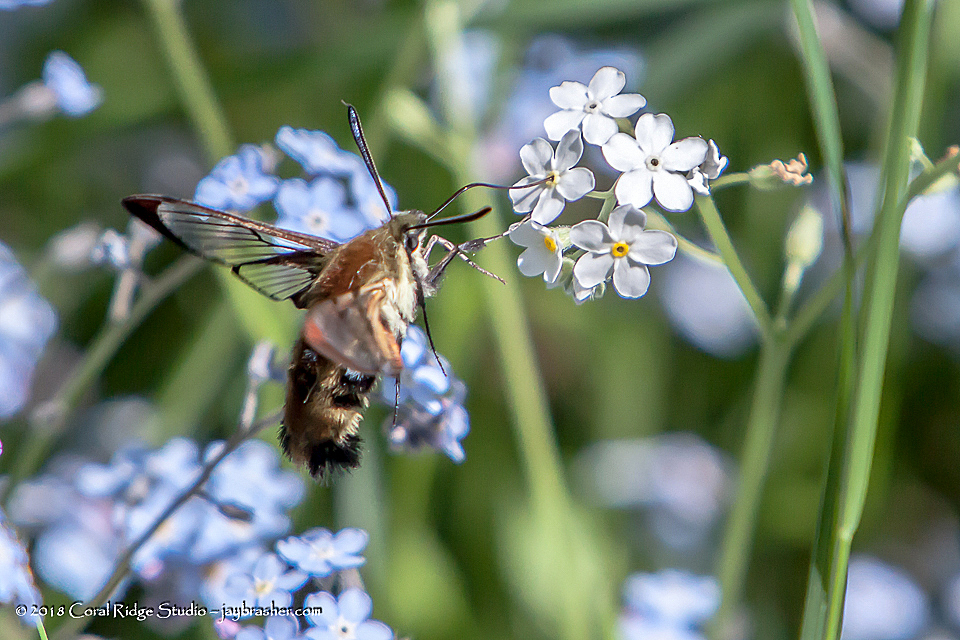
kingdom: Animalia
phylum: Arthropoda
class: Insecta
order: Lepidoptera
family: Sphingidae
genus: Hemaris
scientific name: Hemaris diffinis
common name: Bumblebee moth
